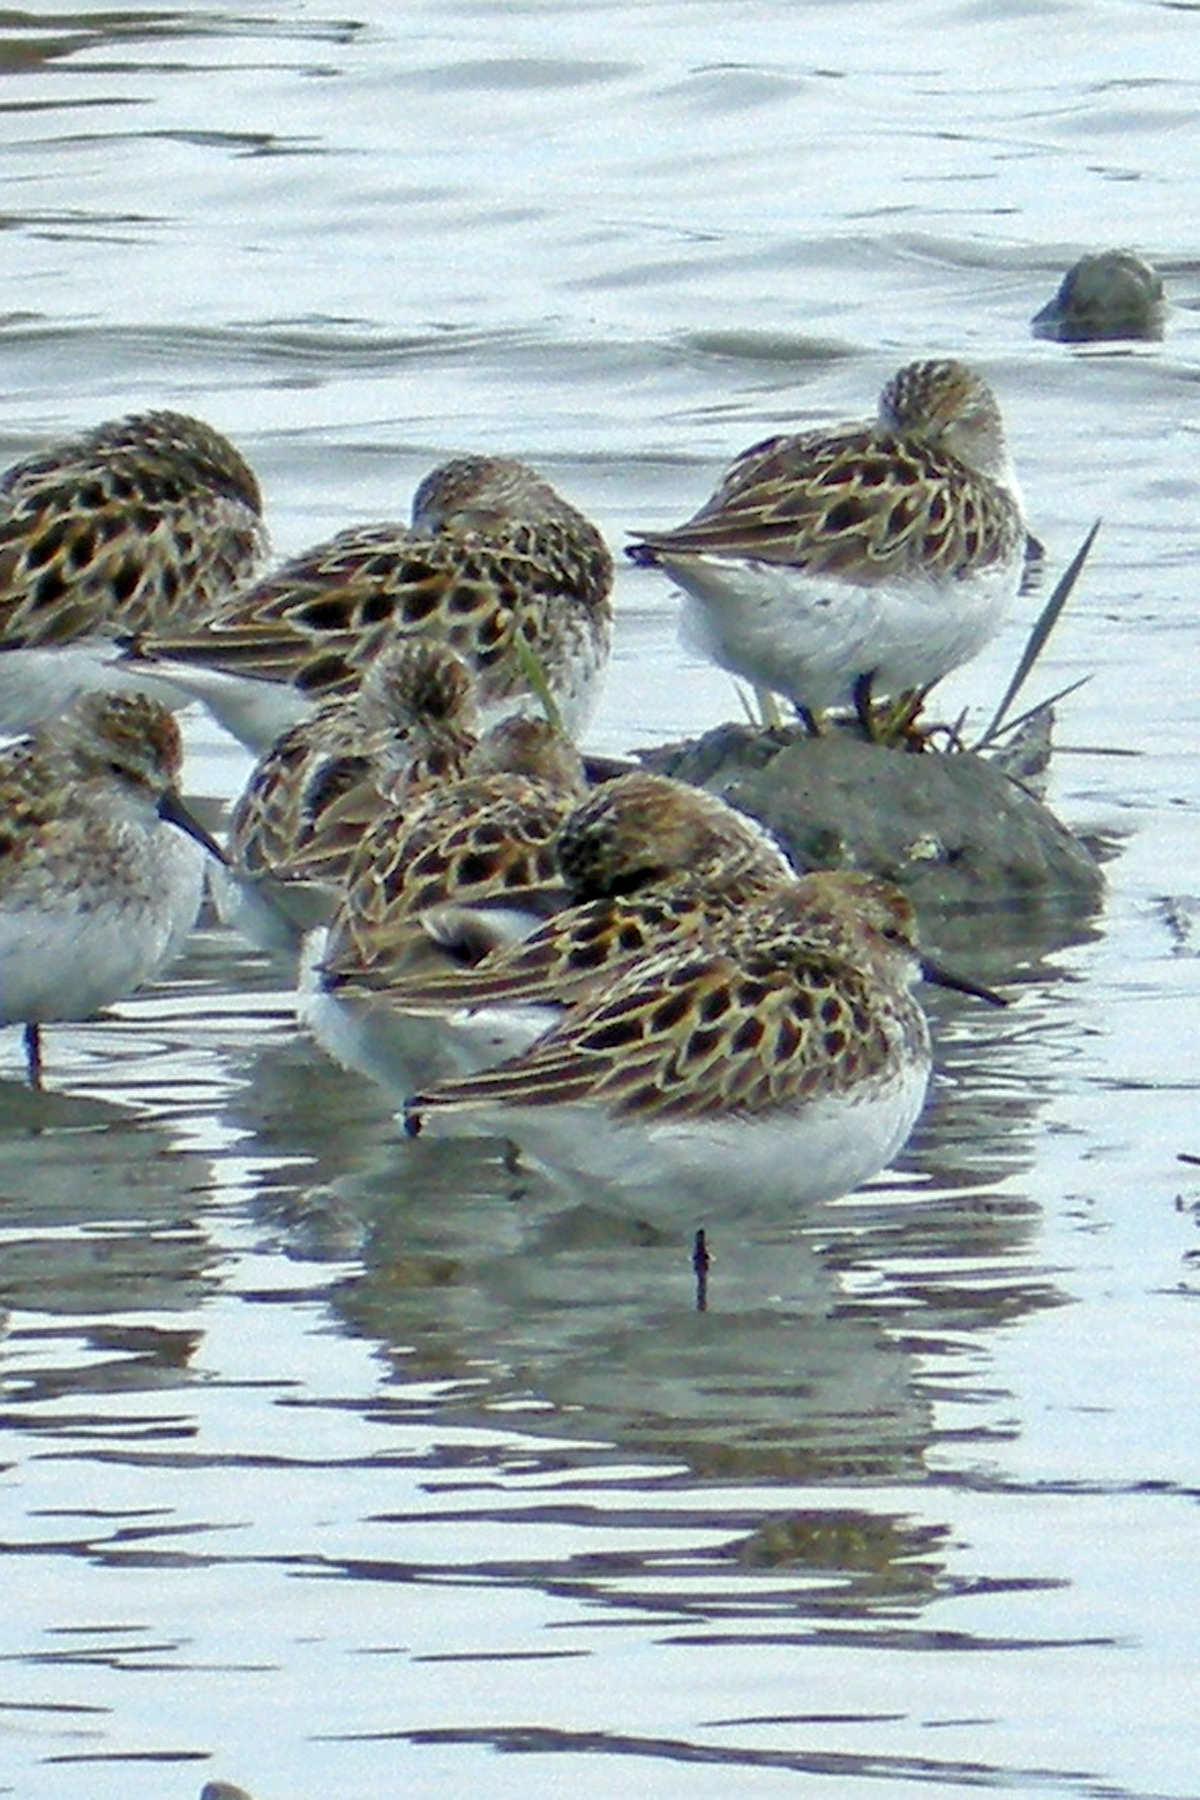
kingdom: Animalia
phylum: Chordata
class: Aves
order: Charadriiformes
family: Scolopacidae
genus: Calidris
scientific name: Calidris pusilla
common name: Semipalmated sandpiper
